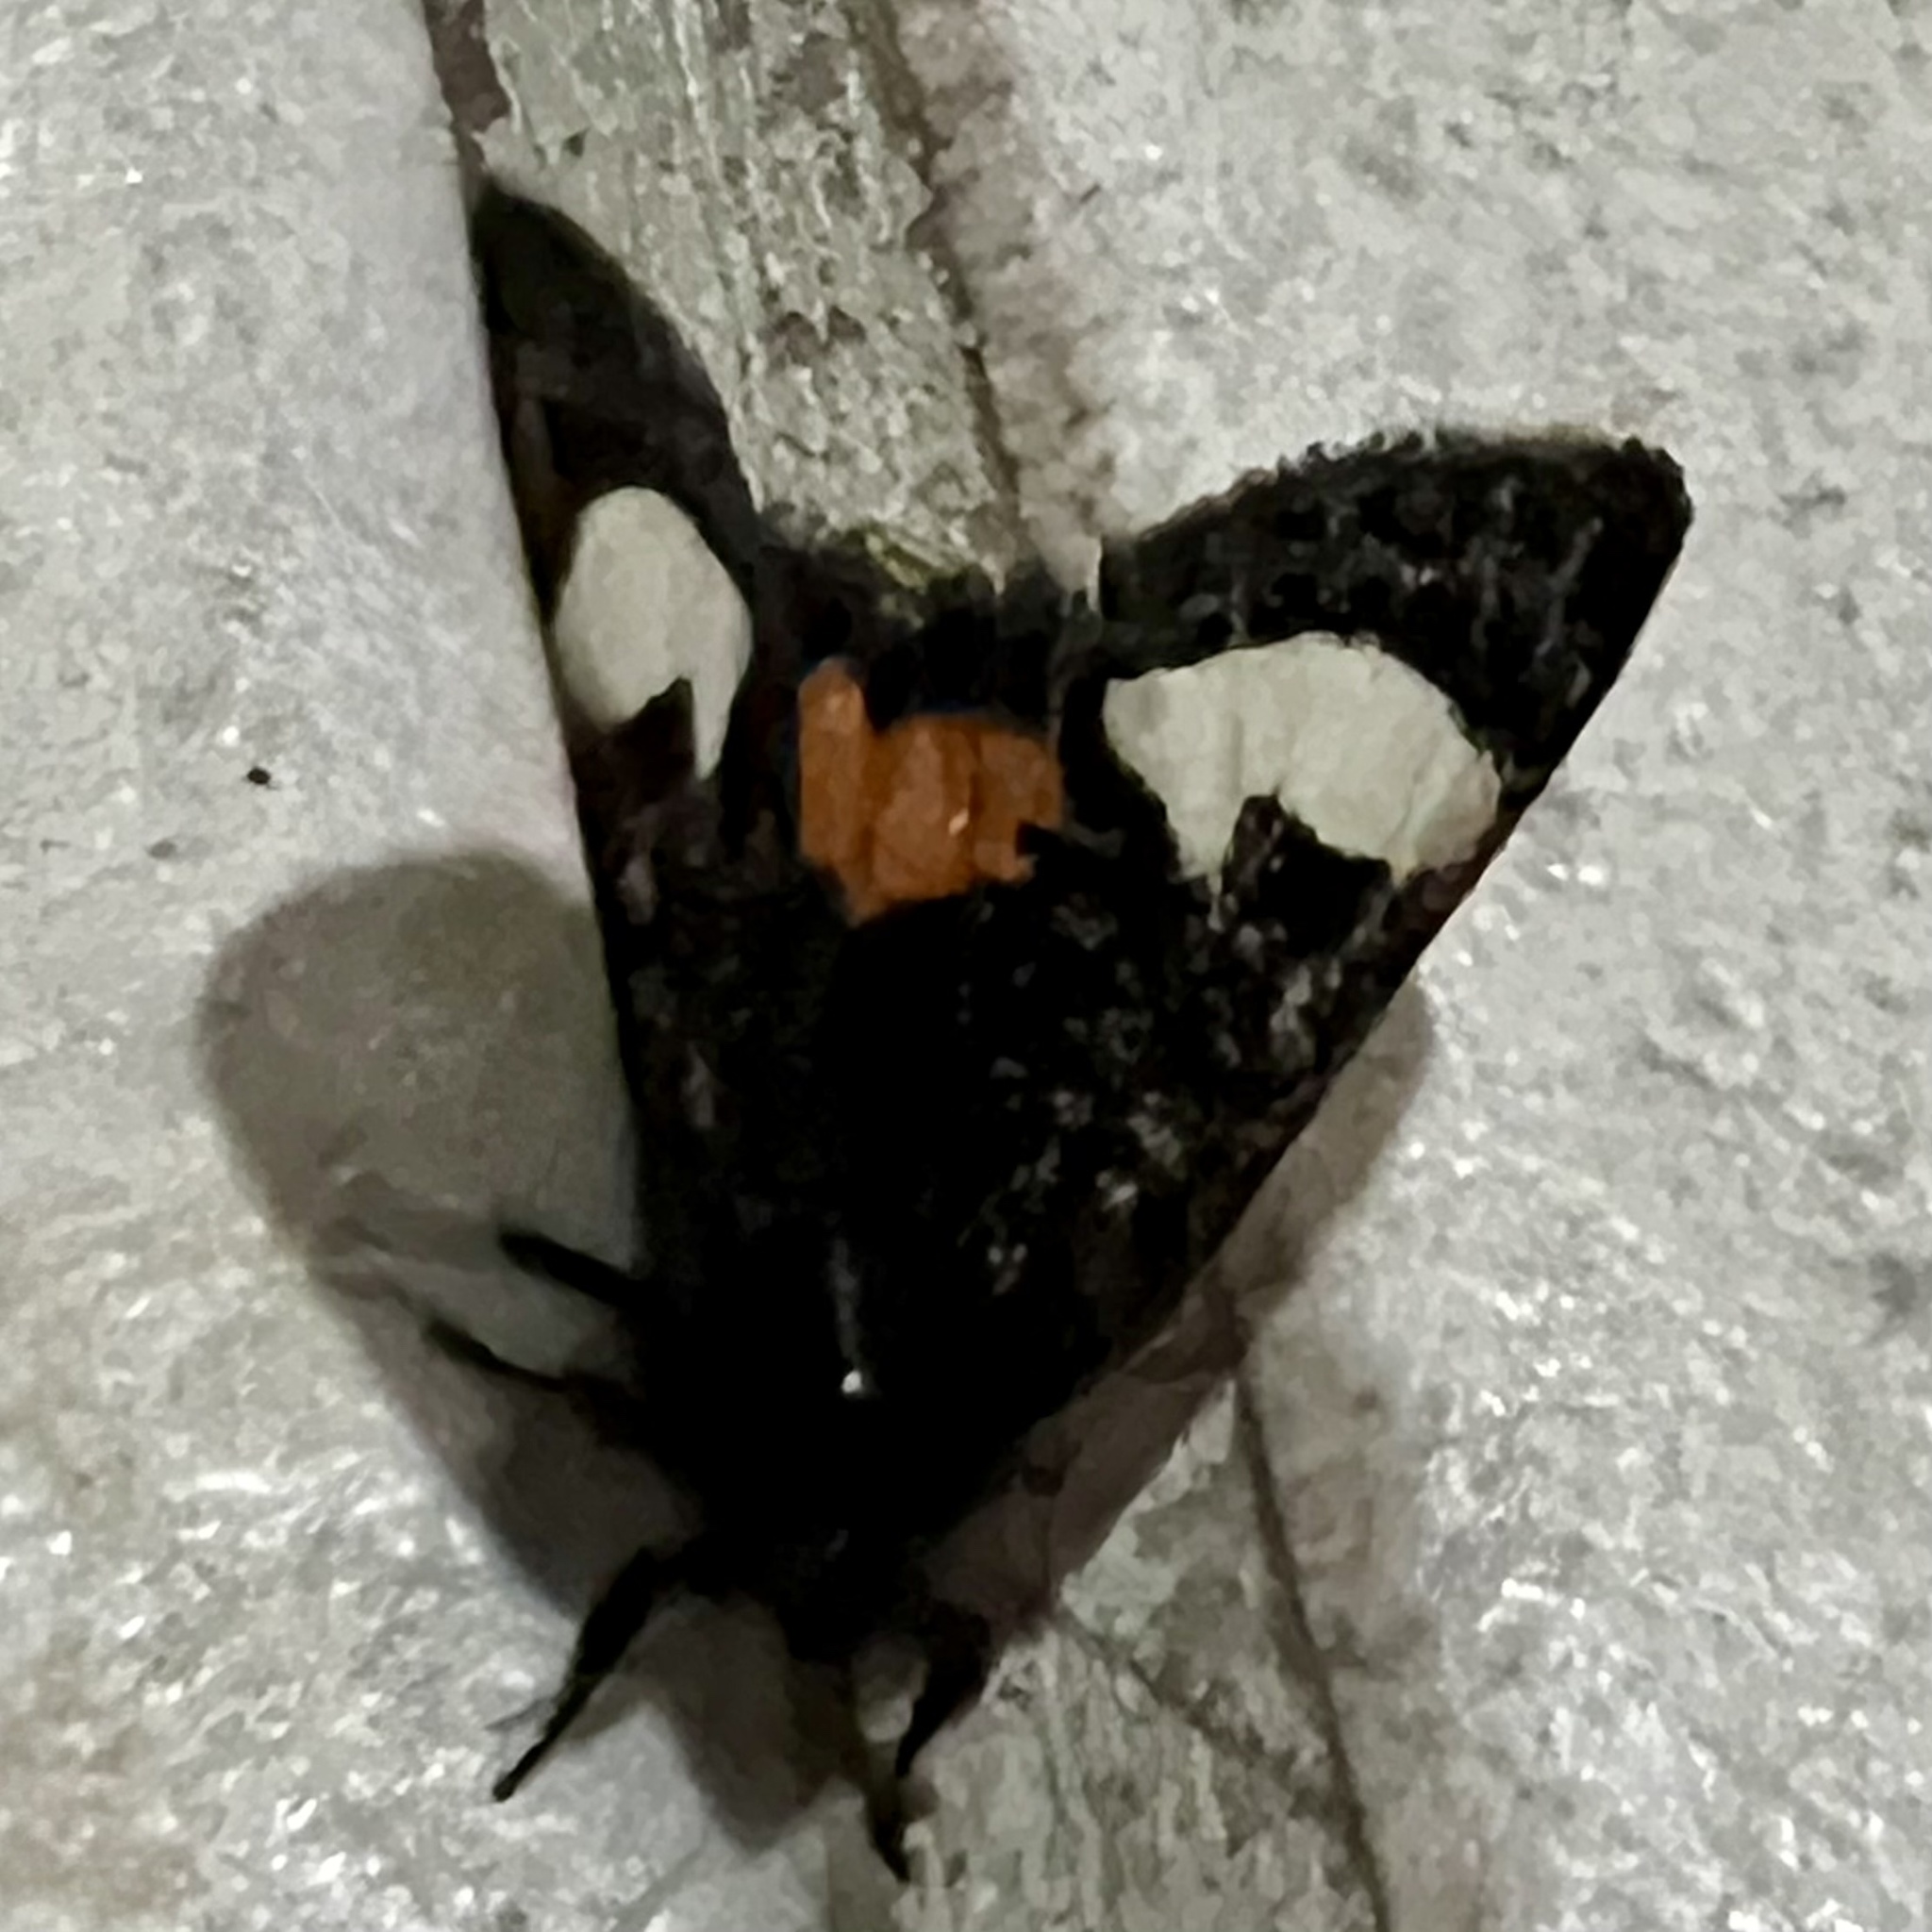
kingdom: Animalia
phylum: Arthropoda
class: Insecta
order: Lepidoptera
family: Noctuidae
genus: Psychomorpha
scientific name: Psychomorpha epimenis
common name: Grapevine epimenis moth
